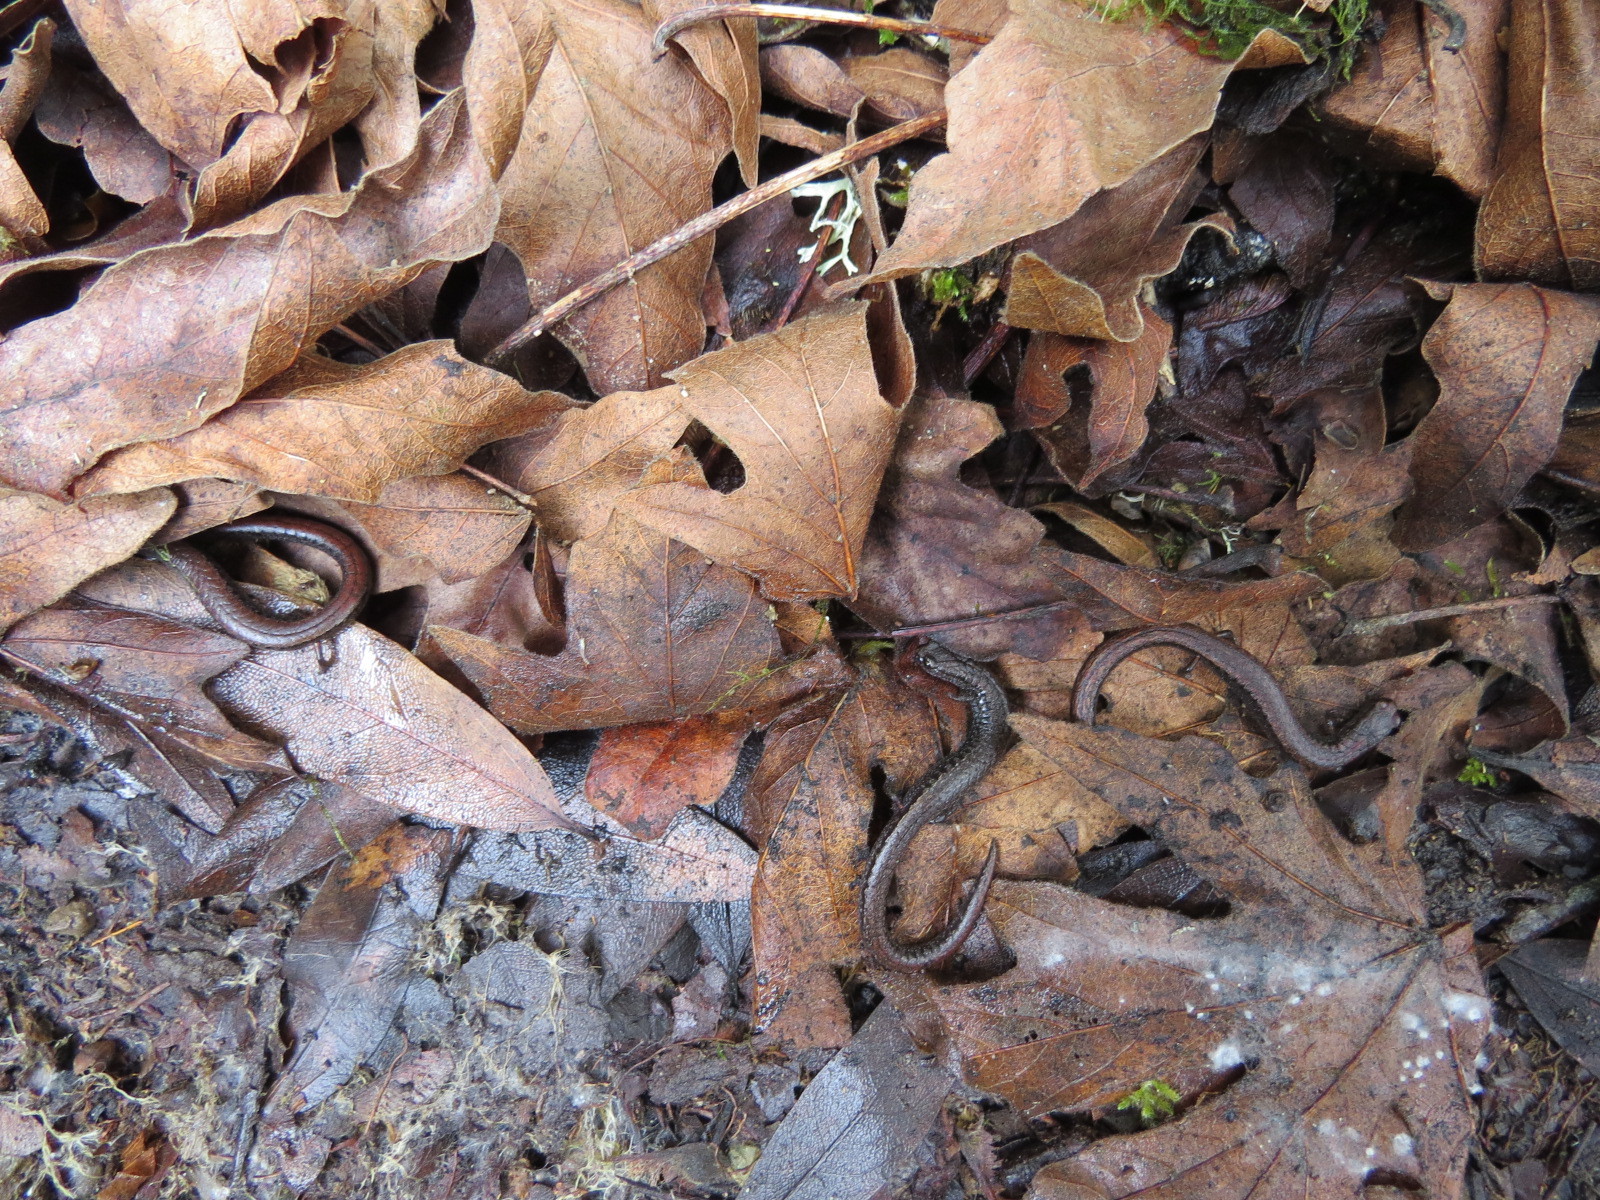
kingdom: Animalia
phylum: Chordata
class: Amphibia
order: Caudata
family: Plethodontidae
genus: Batrachoseps
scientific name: Batrachoseps attenuatus
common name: California slender salamander
